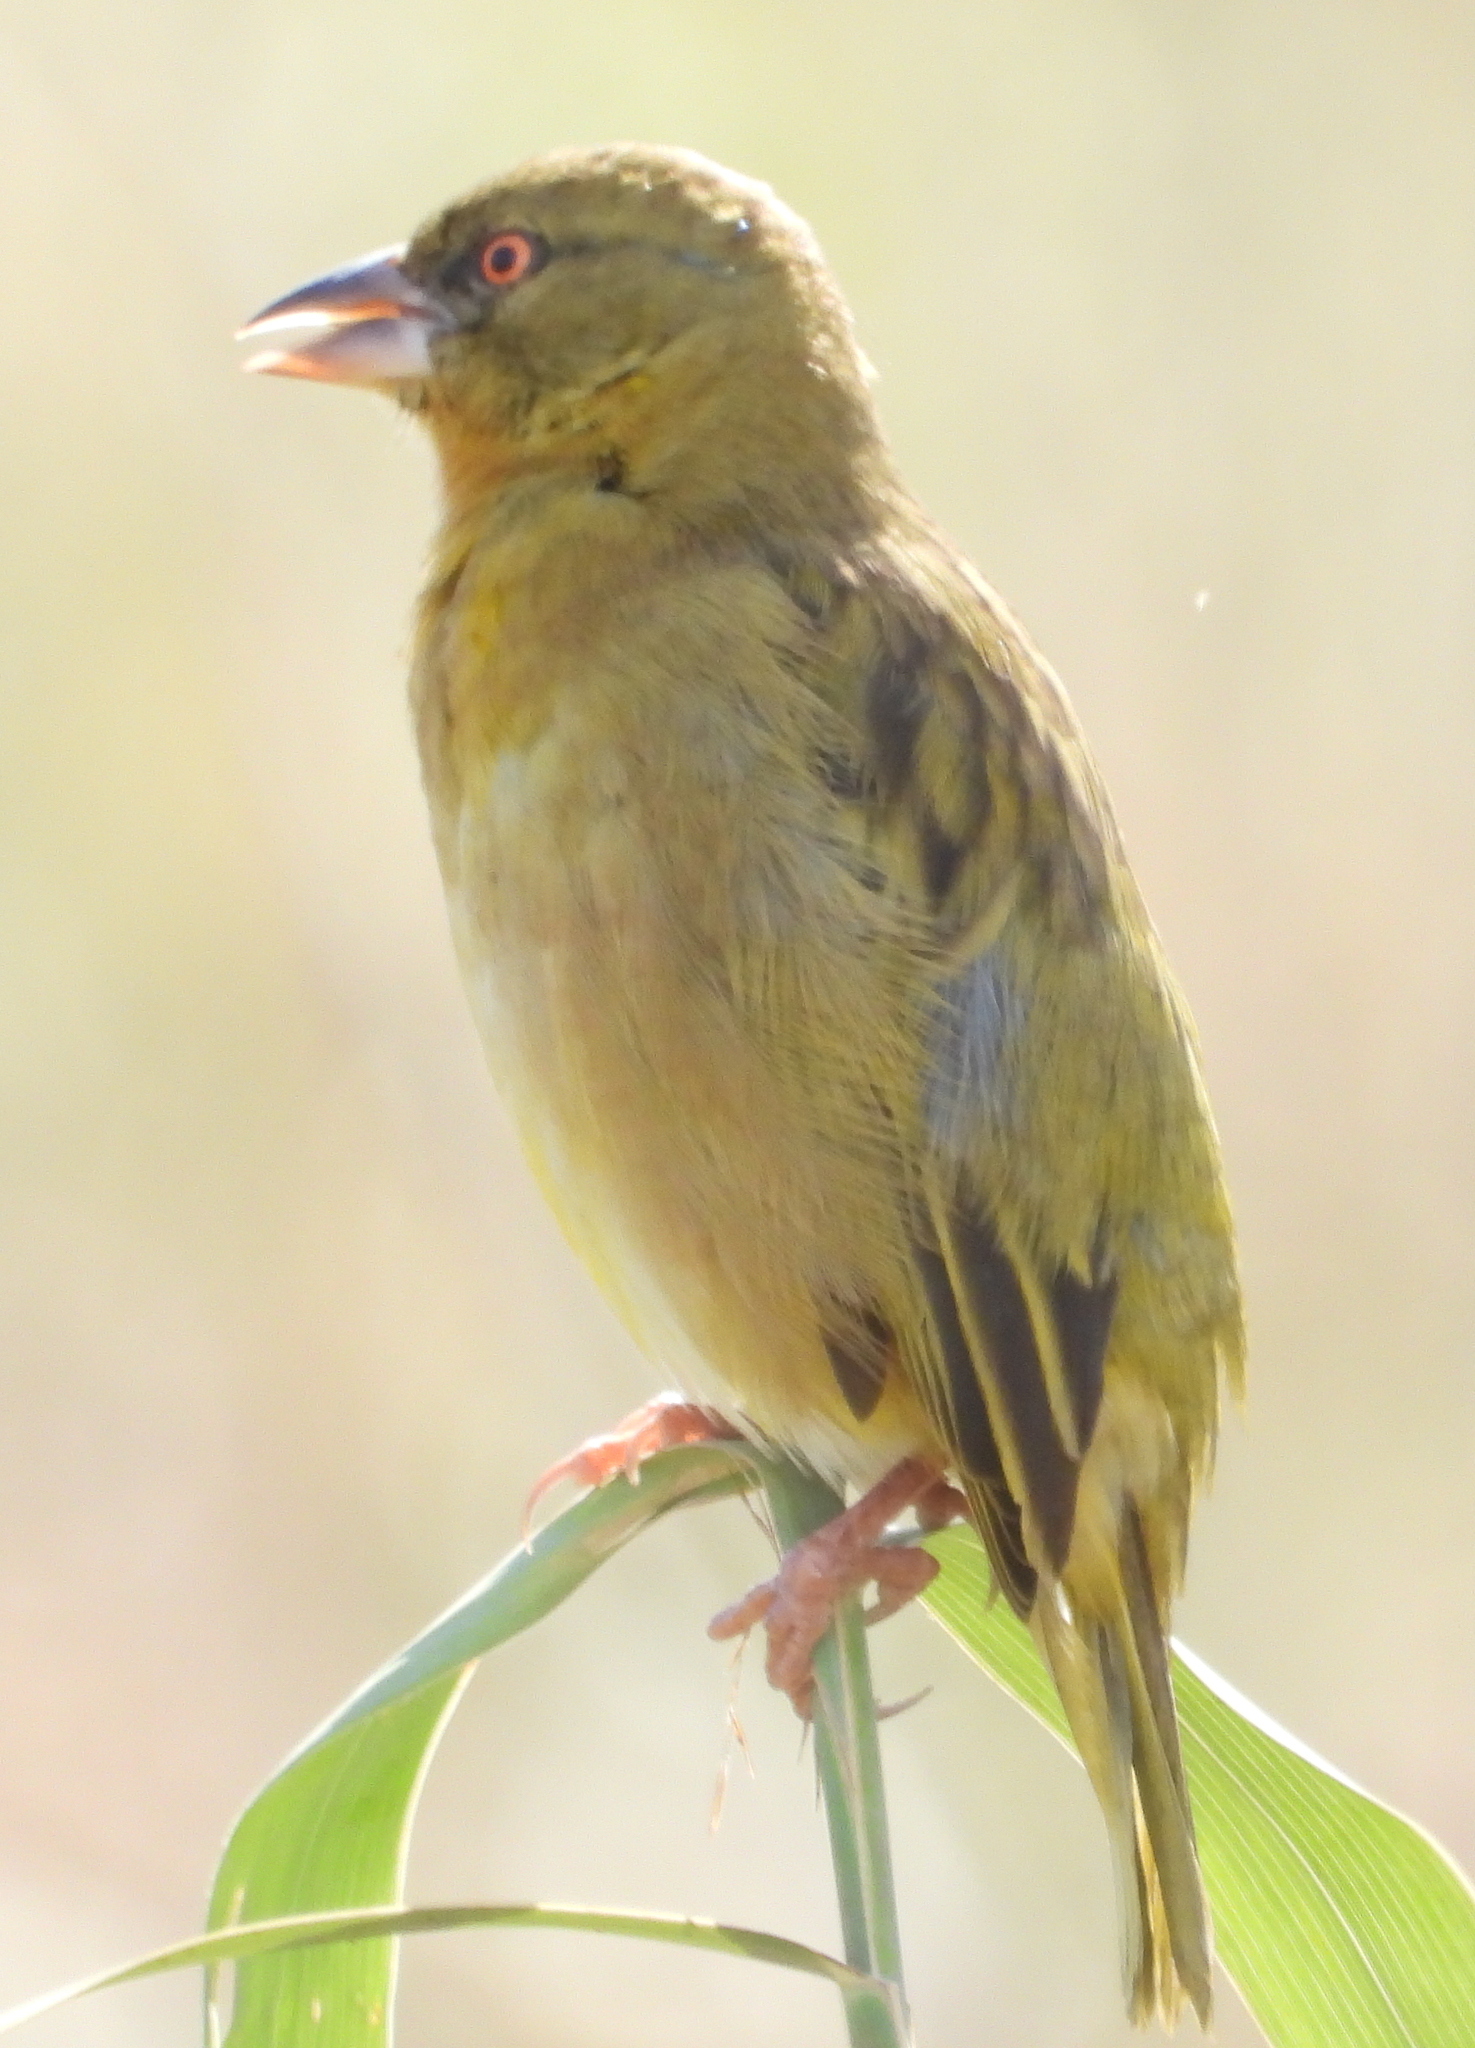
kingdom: Animalia
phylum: Chordata
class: Aves
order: Passeriformes
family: Ploceidae
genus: Ploceus
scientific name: Ploceus velatus
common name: Southern masked weaver
